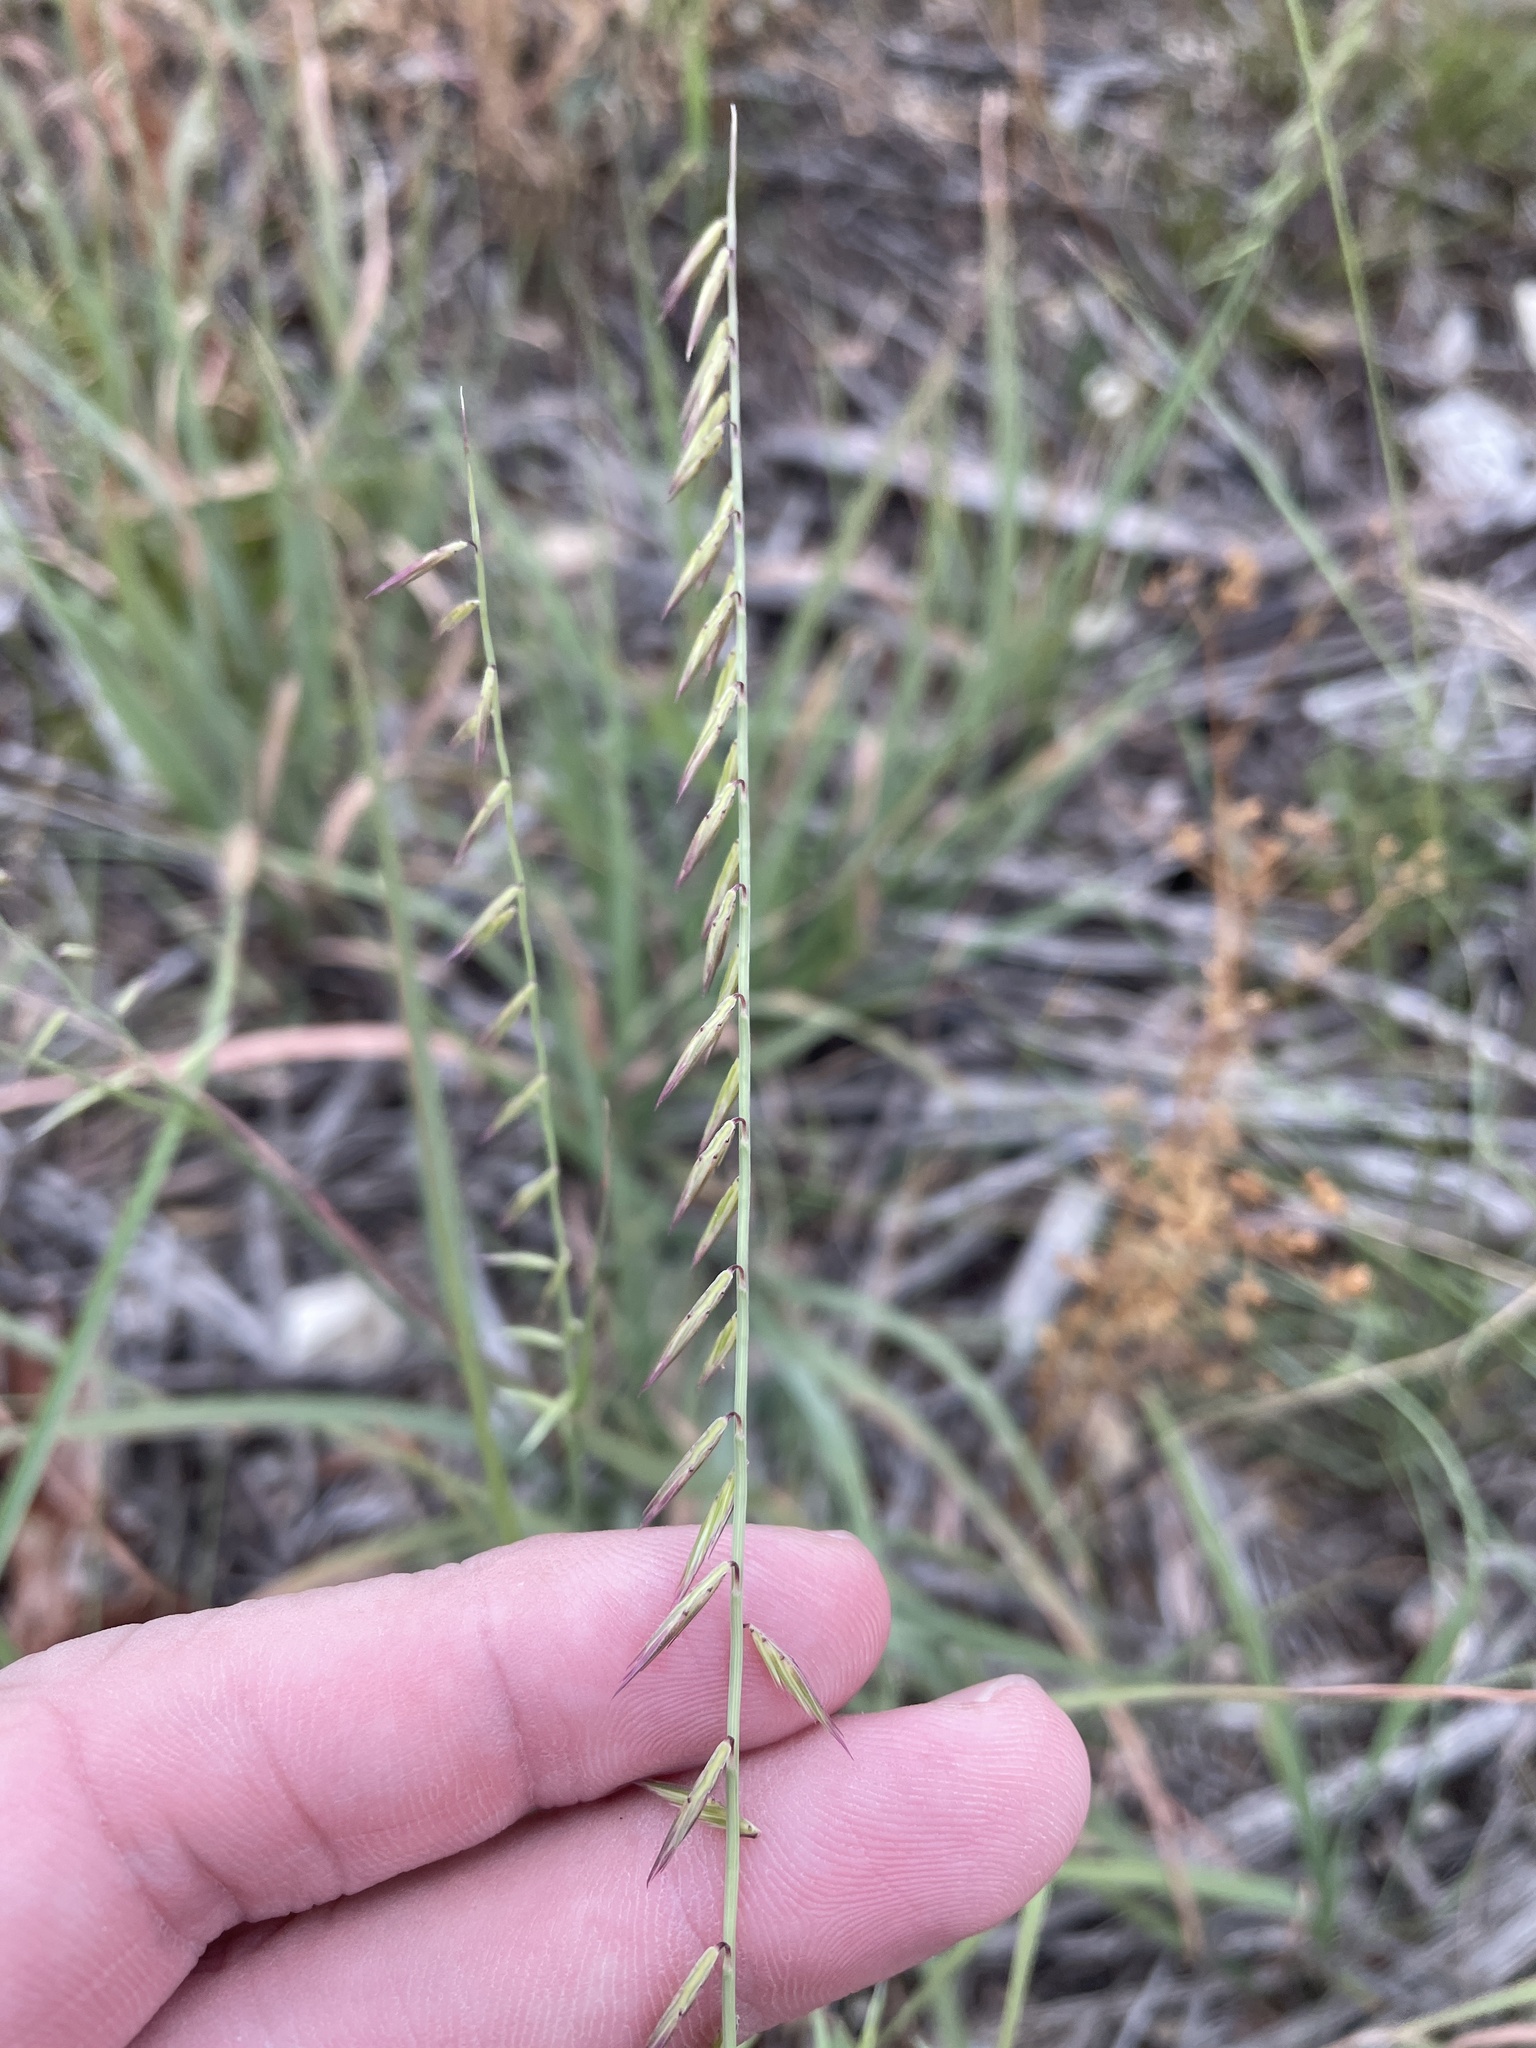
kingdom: Plantae
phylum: Tracheophyta
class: Liliopsida
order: Poales
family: Poaceae
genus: Bouteloua
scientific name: Bouteloua curtipendula
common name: Side-oats grama
